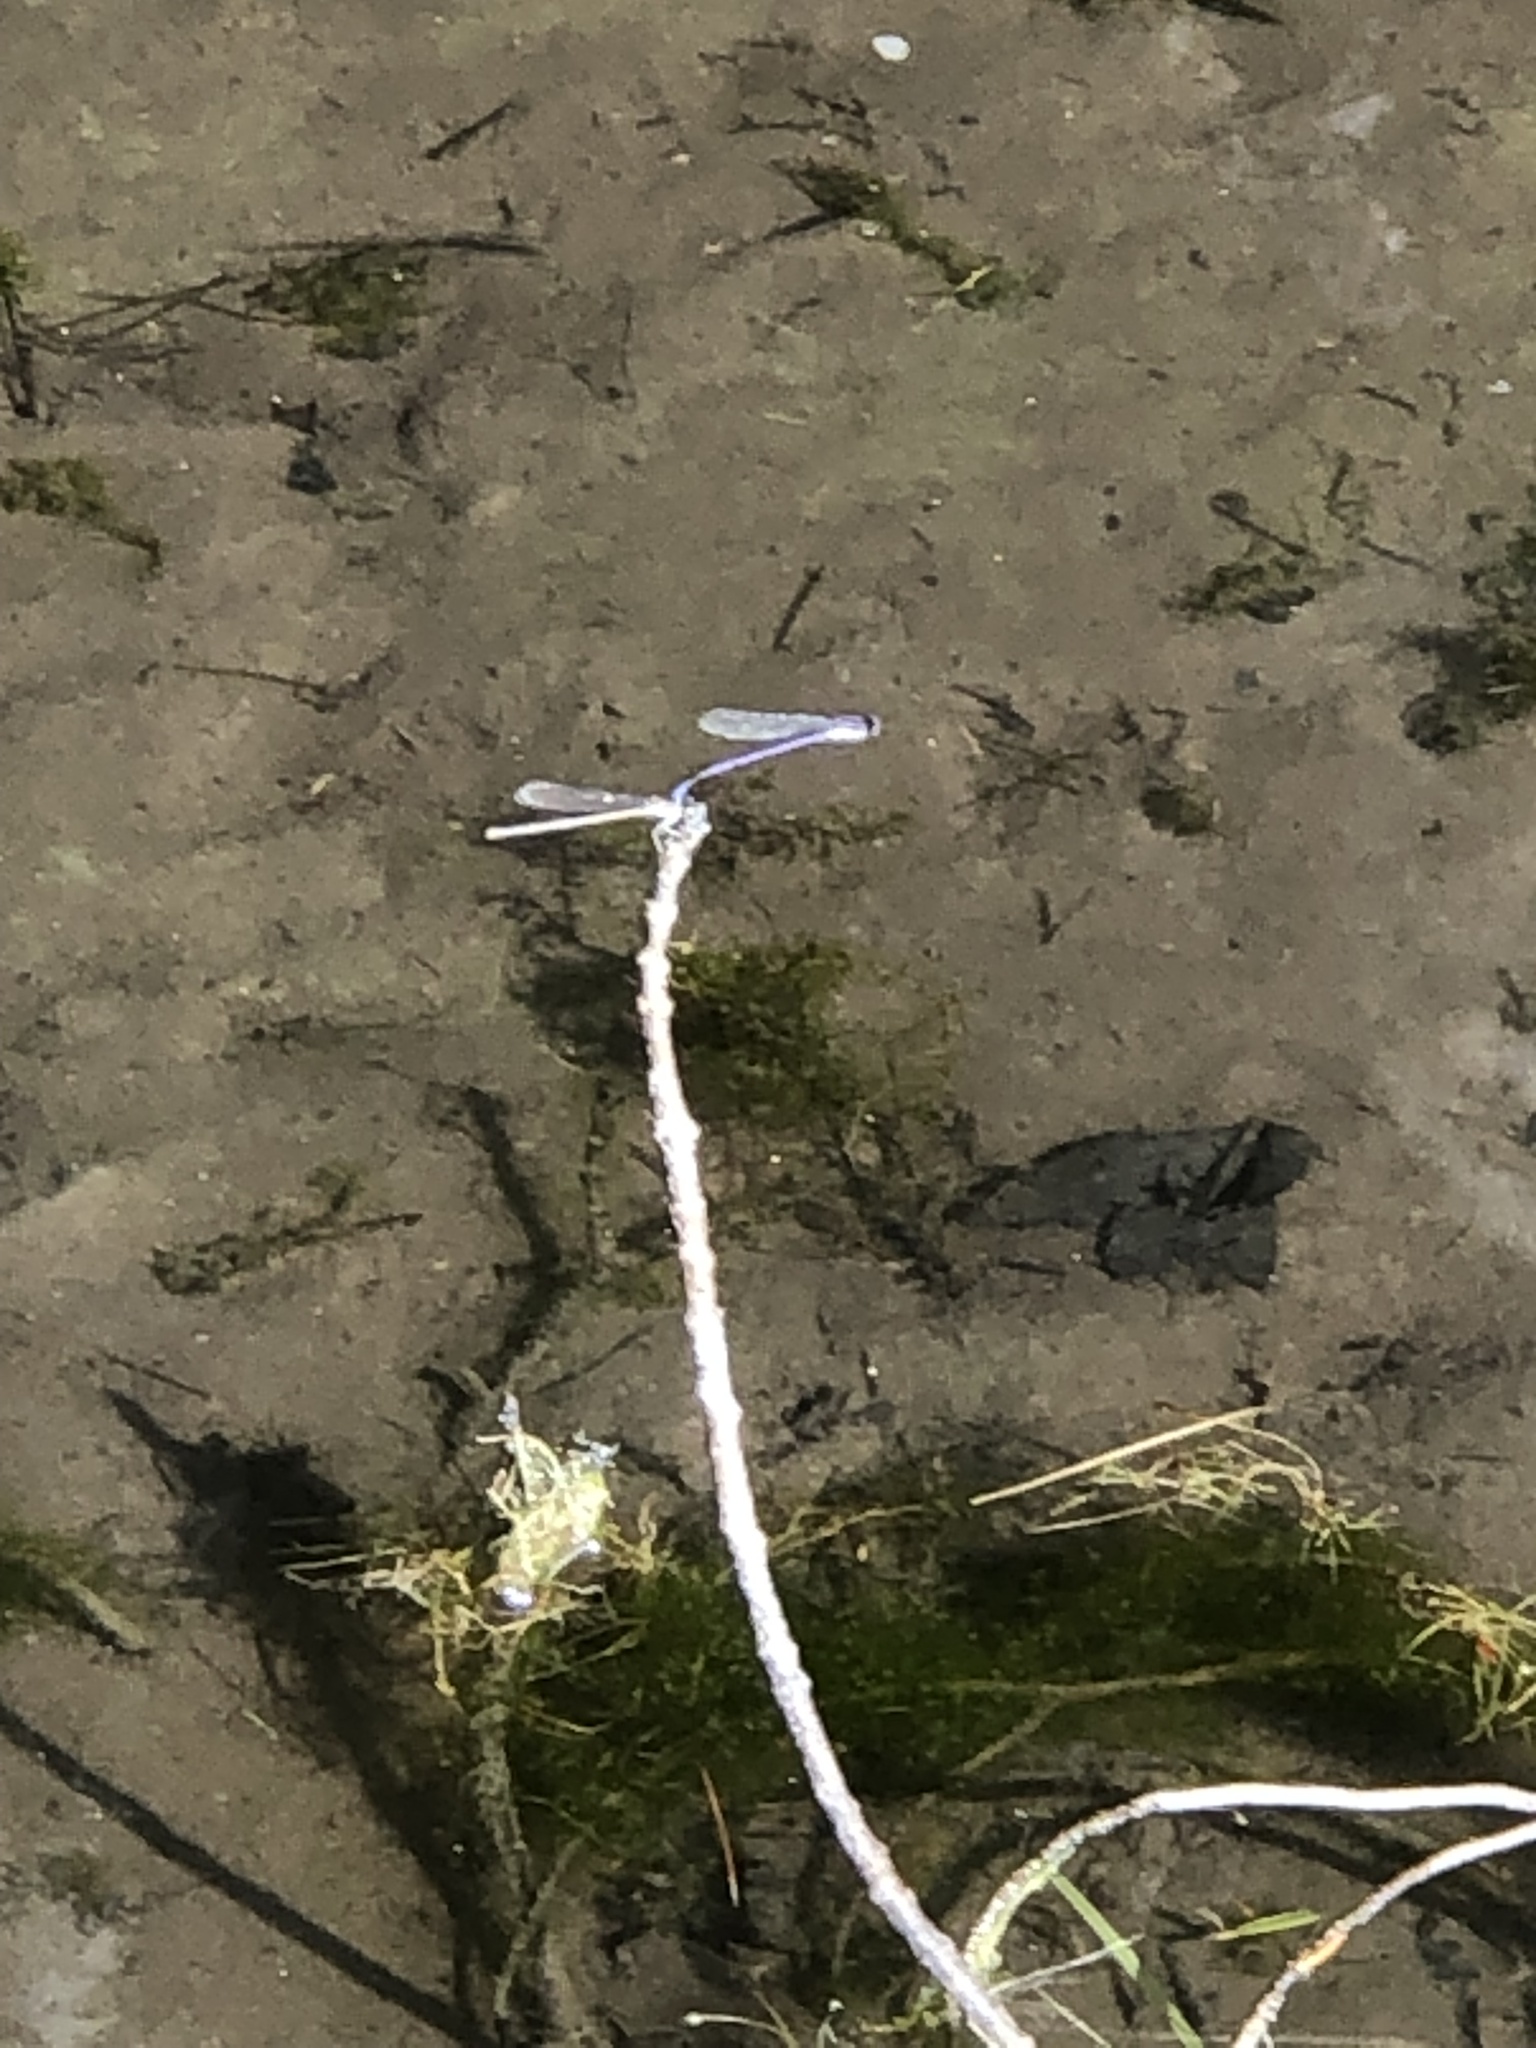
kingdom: Animalia
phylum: Arthropoda
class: Insecta
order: Odonata
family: Coenagrionidae
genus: Argia
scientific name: Argia fumipennis
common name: Variable dancer
